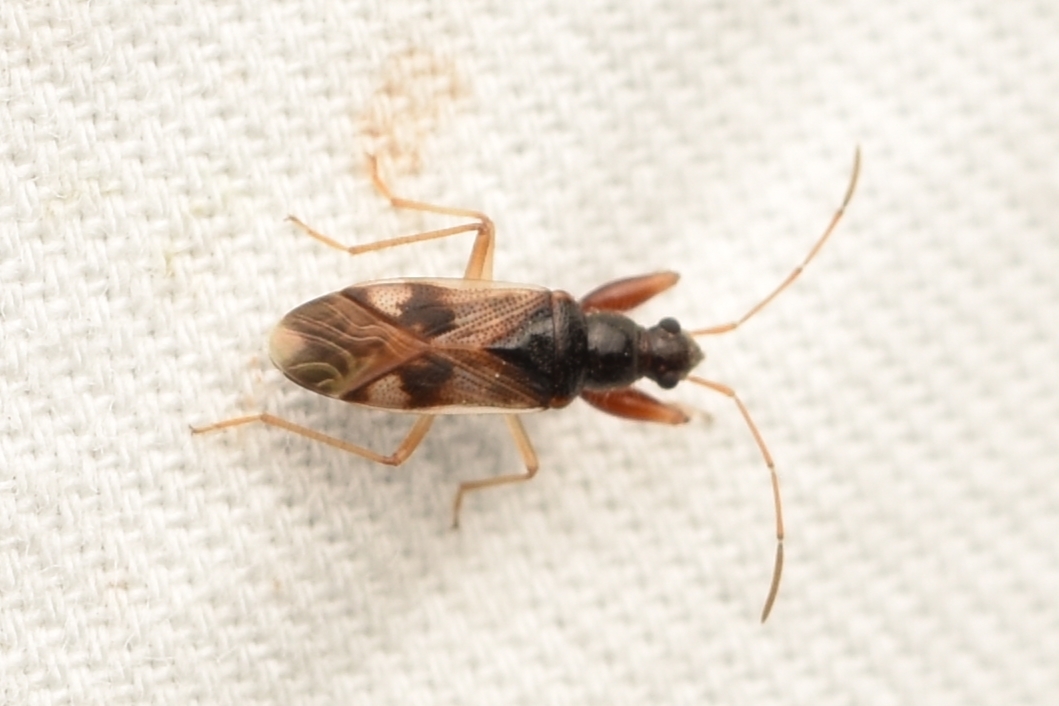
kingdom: Animalia
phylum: Arthropoda
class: Insecta
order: Hemiptera
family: Rhyparochromidae
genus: Pseudopamera
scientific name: Pseudopamera nitidula
